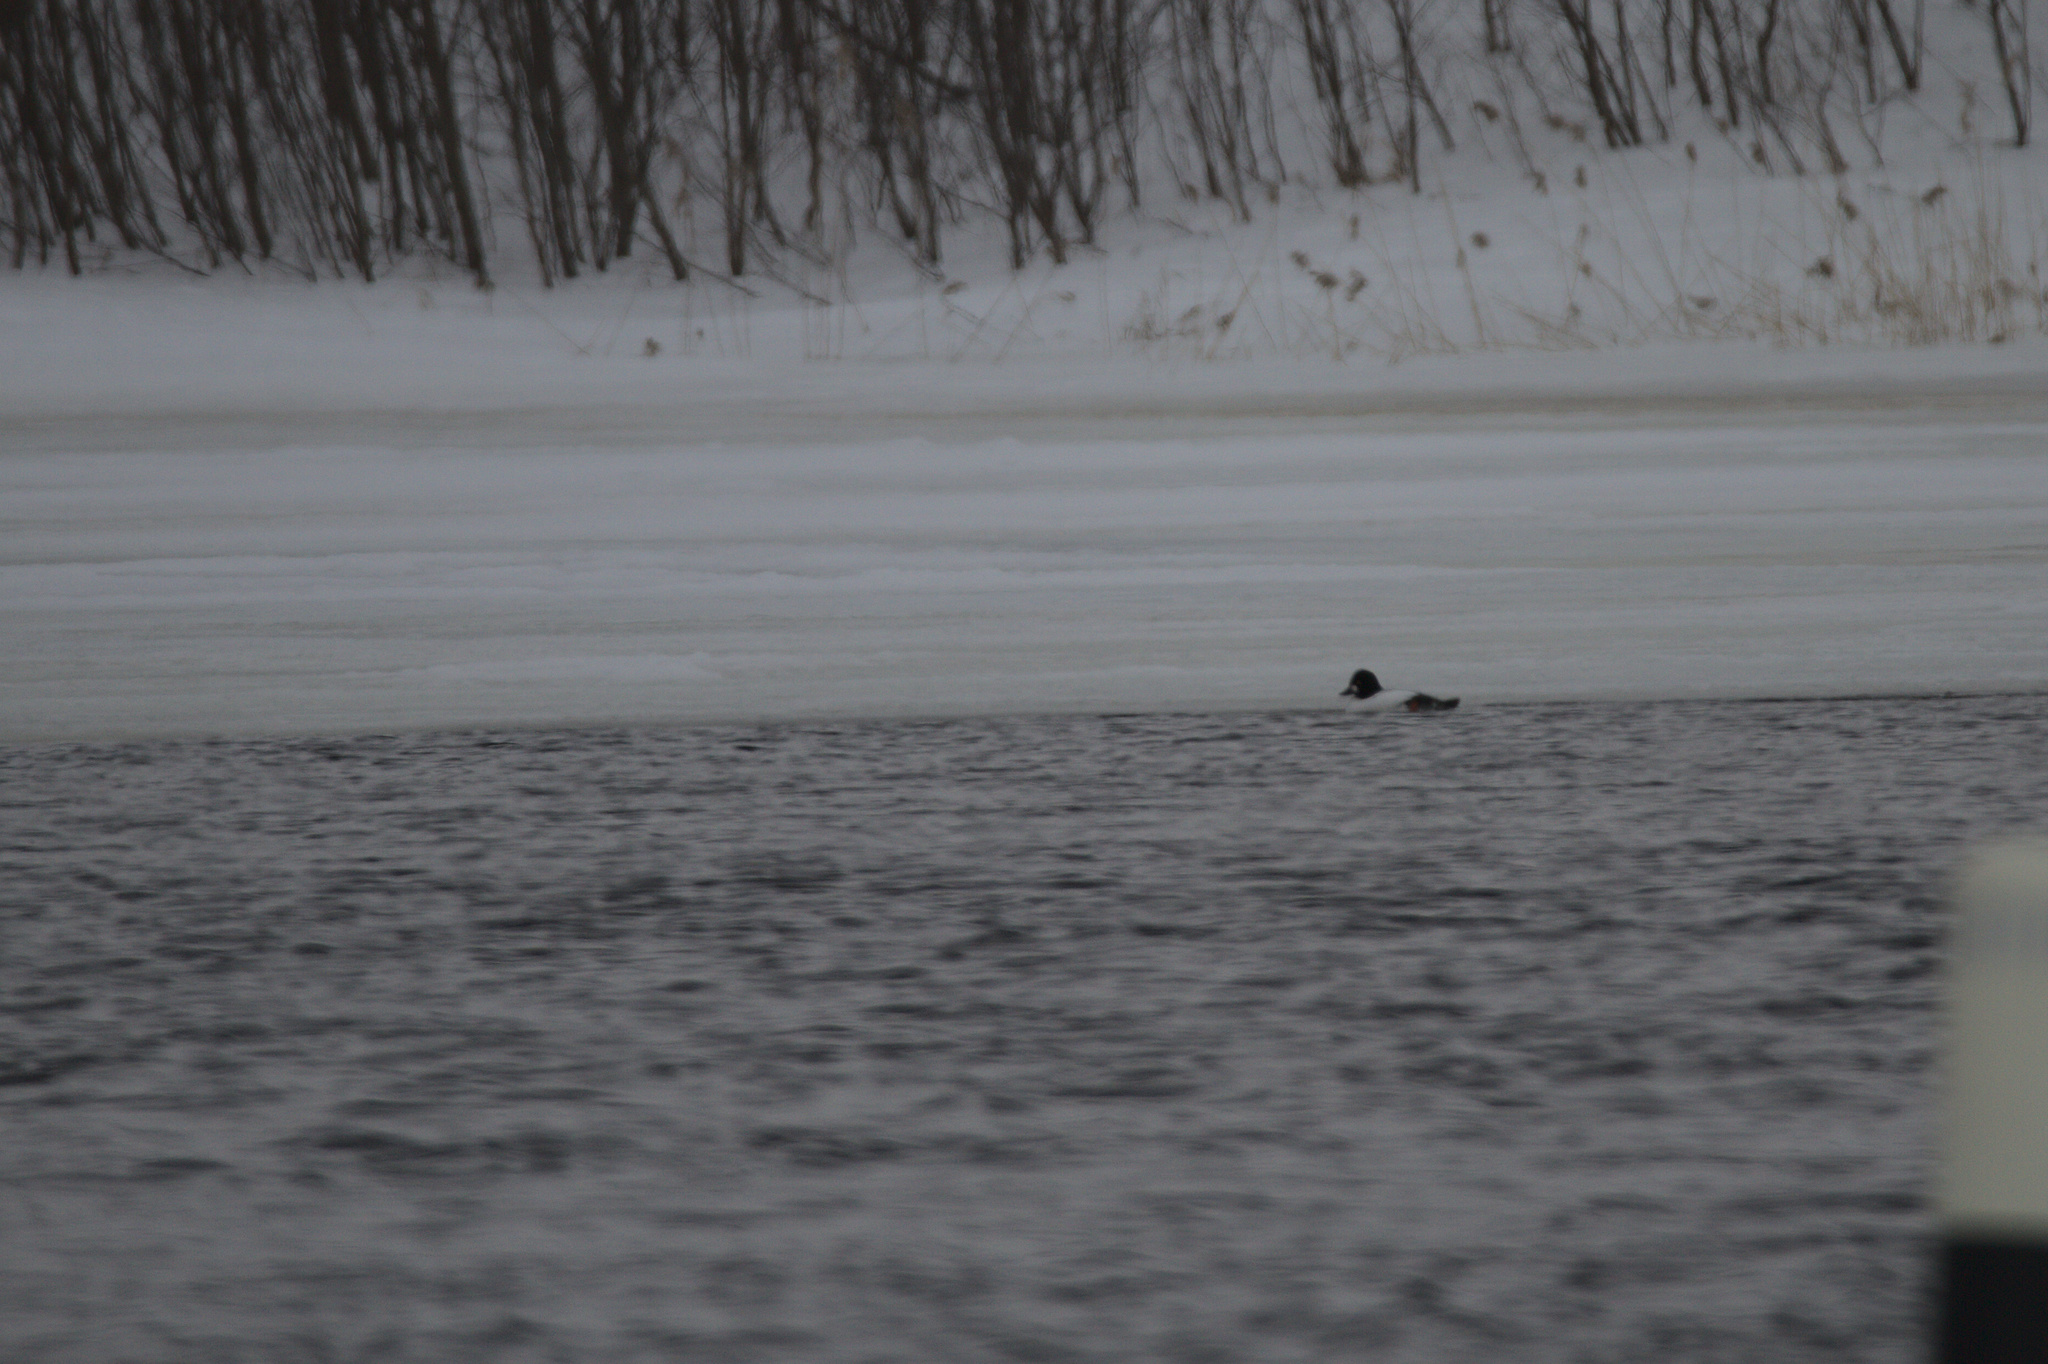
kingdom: Animalia
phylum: Chordata
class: Aves
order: Anseriformes
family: Anatidae
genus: Bucephala
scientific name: Bucephala clangula
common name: Common goldeneye
